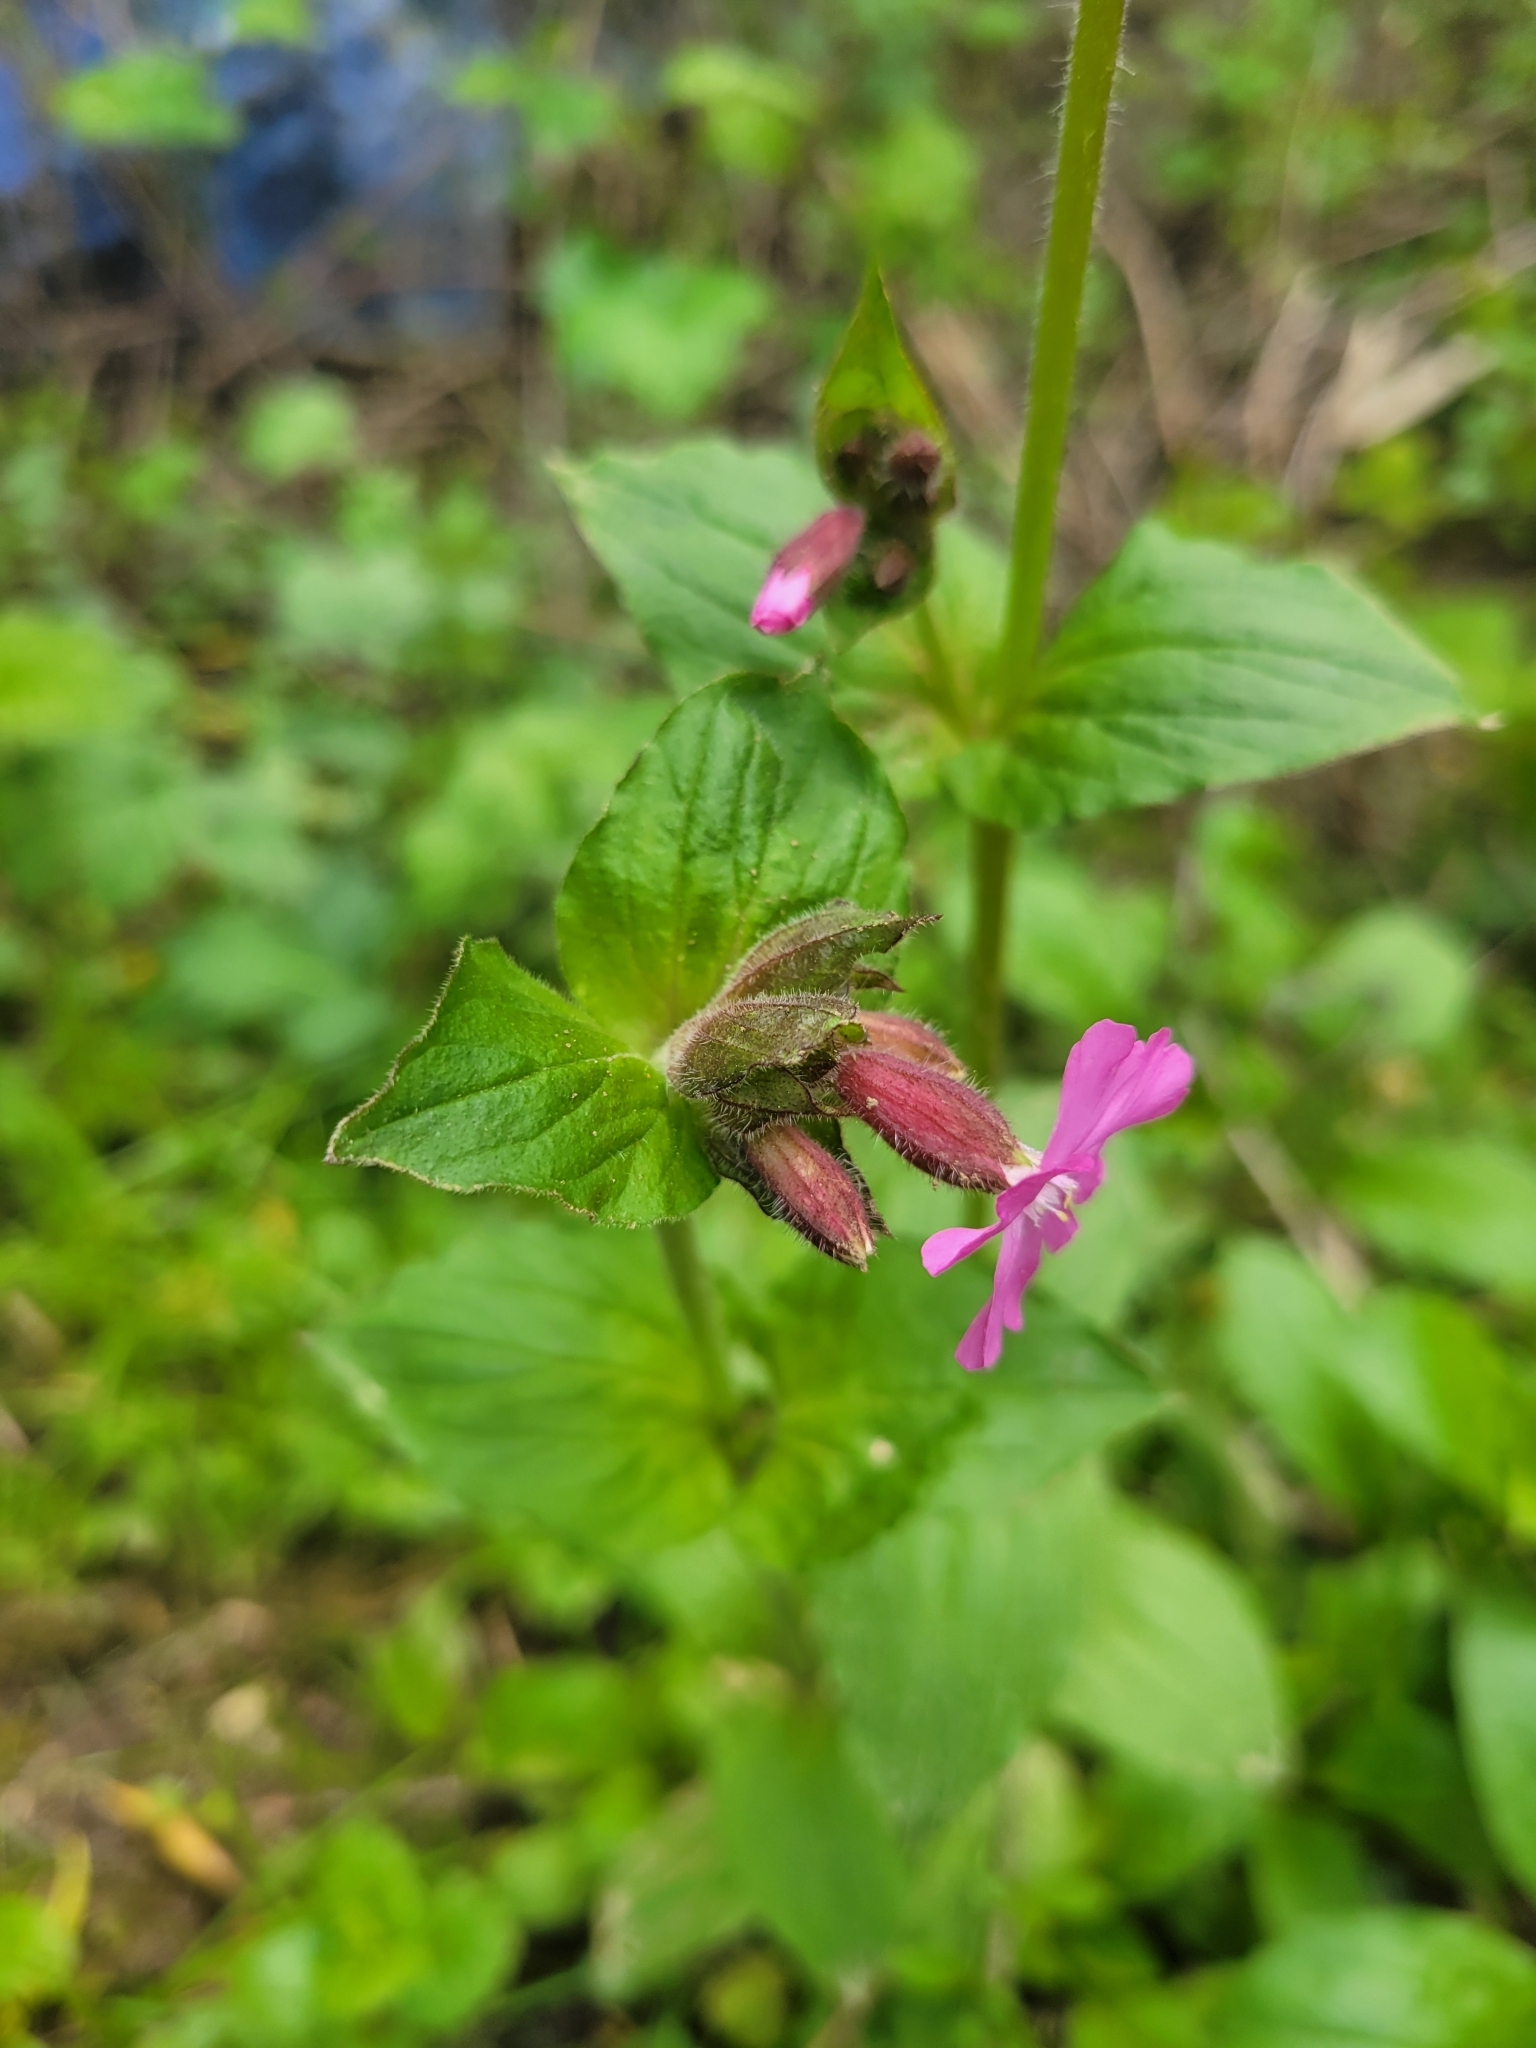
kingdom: Plantae
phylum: Tracheophyta
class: Magnoliopsida
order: Caryophyllales
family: Caryophyllaceae
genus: Silene
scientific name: Silene dioica
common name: Red campion
